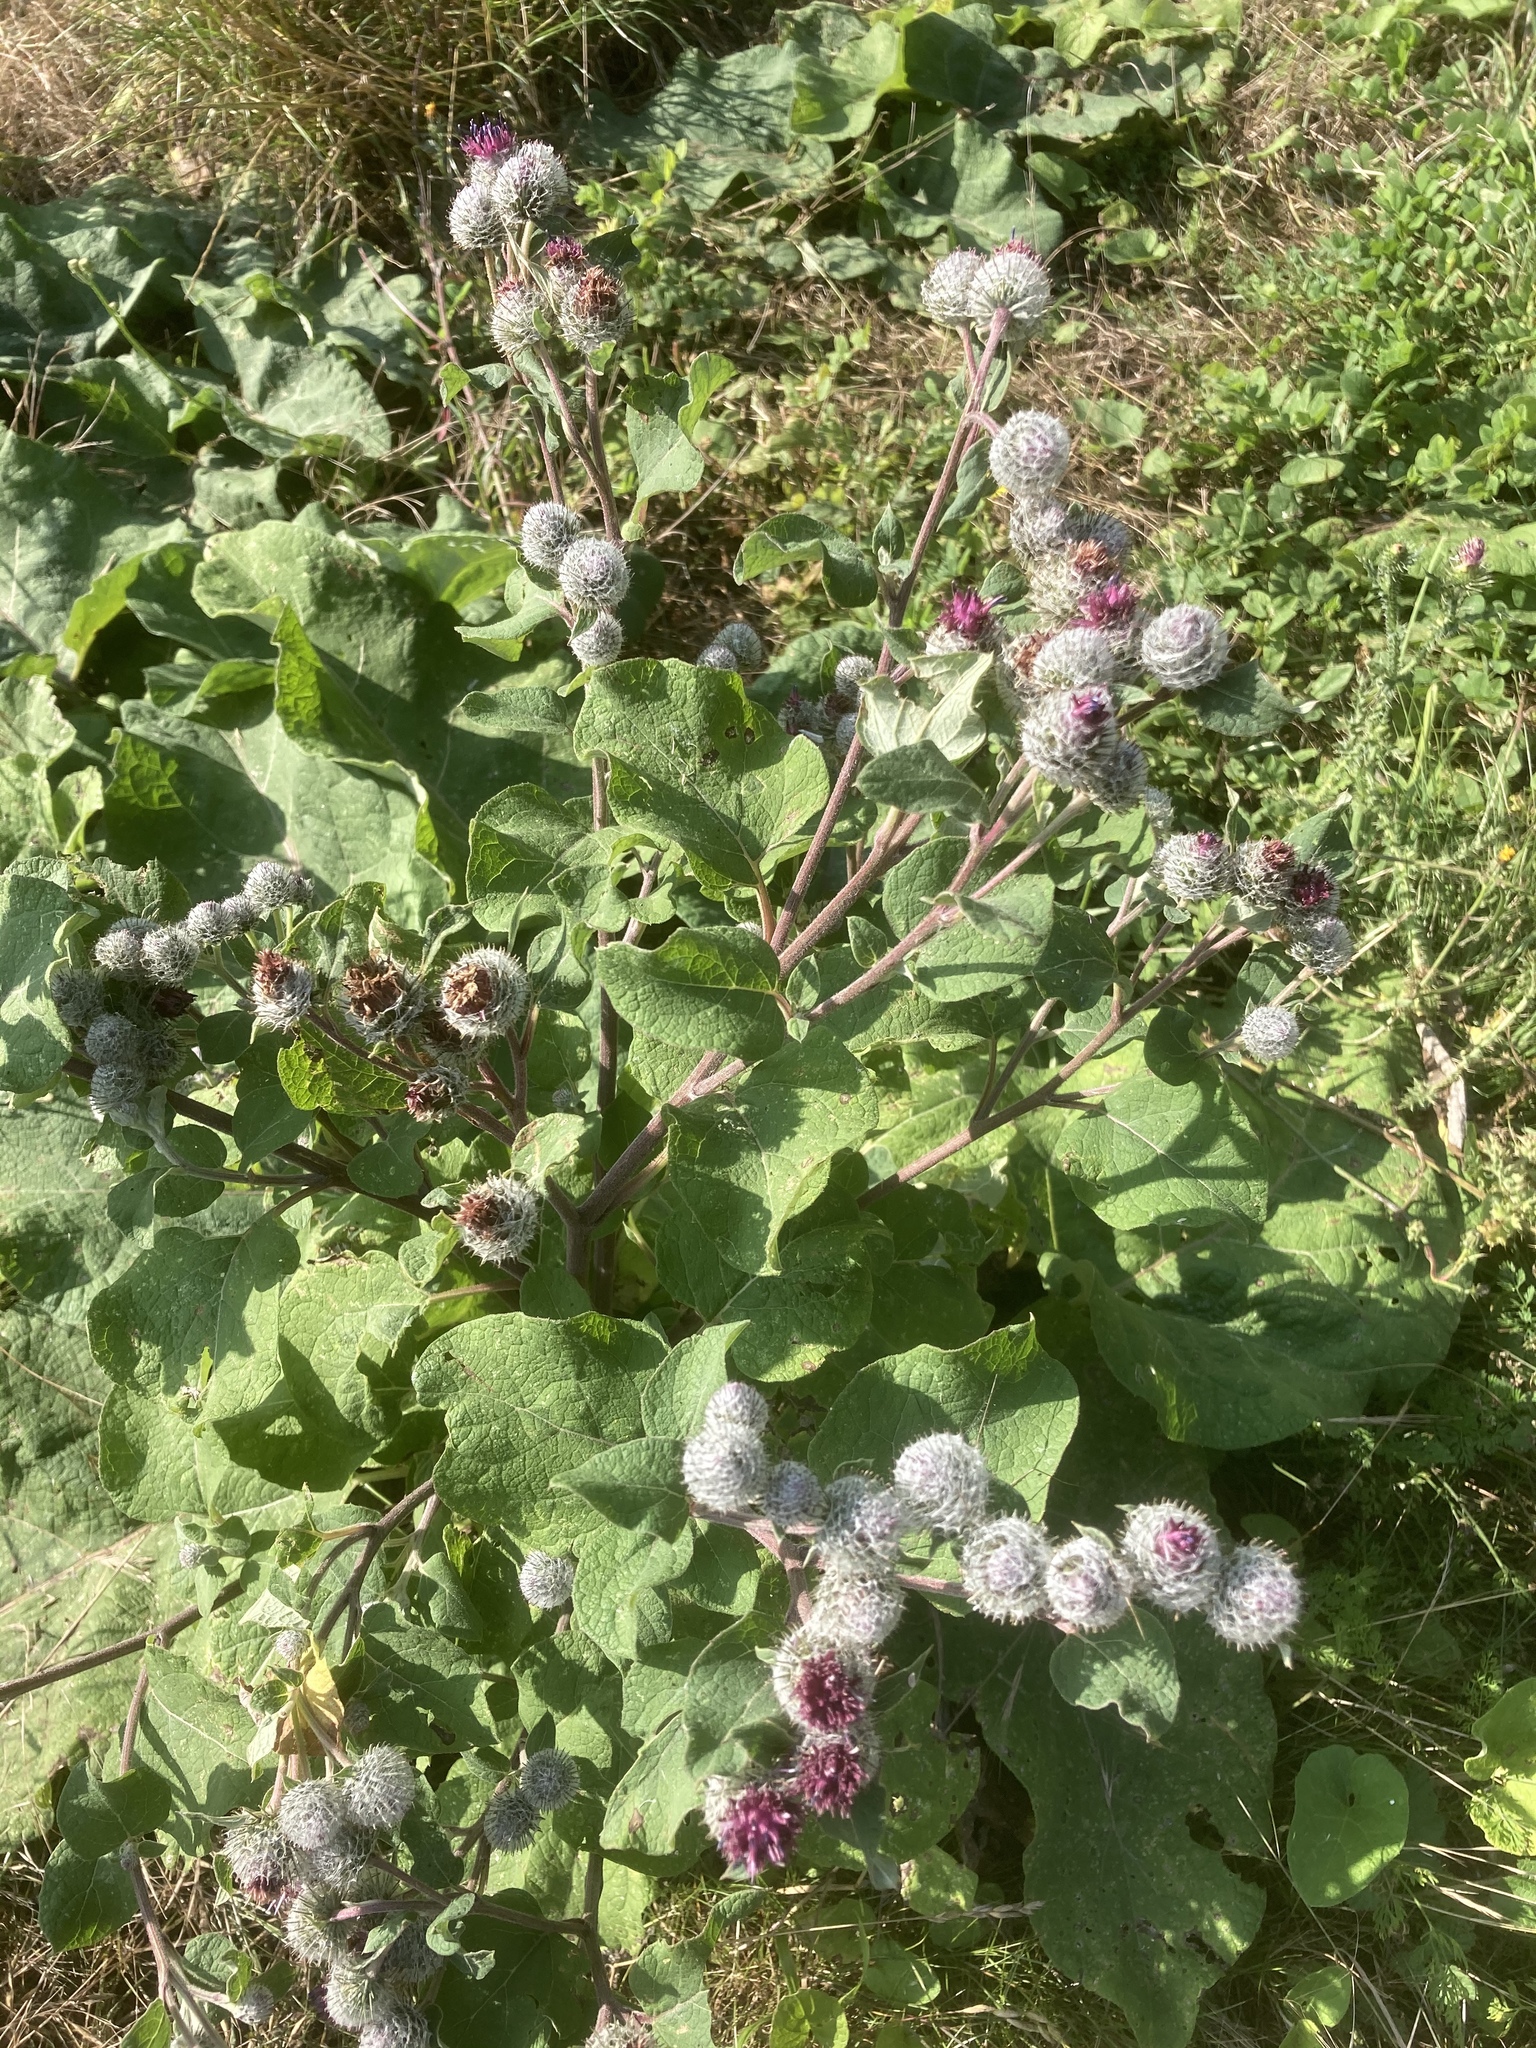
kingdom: Plantae
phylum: Tracheophyta
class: Magnoliopsida
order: Asterales
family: Asteraceae
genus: Arctium
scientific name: Arctium tomentosum
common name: Woolly burdock
